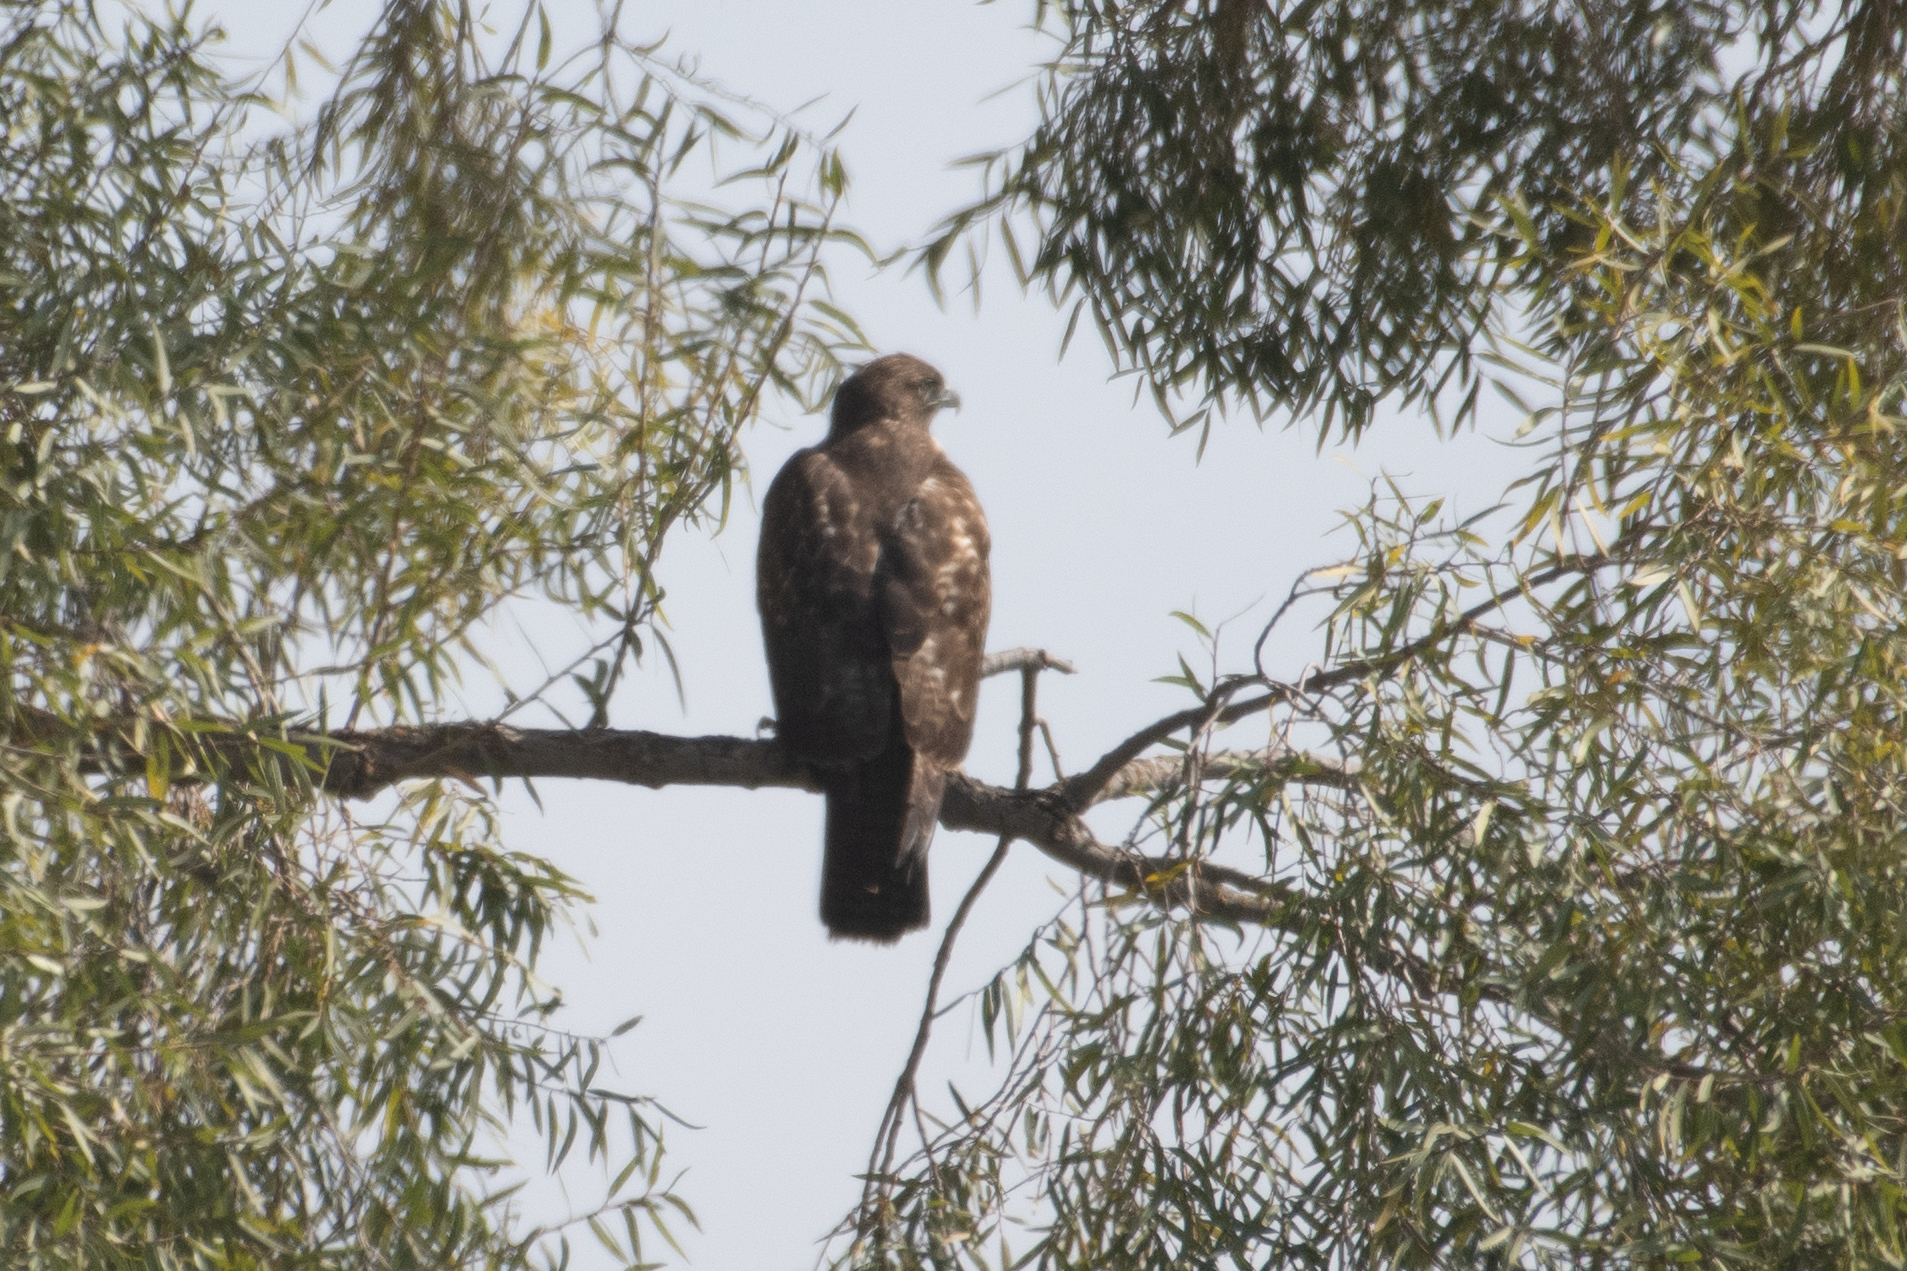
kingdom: Animalia
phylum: Chordata
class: Aves
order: Accipitriformes
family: Accipitridae
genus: Buteo
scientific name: Buteo jamaicensis
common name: Red-tailed hawk
